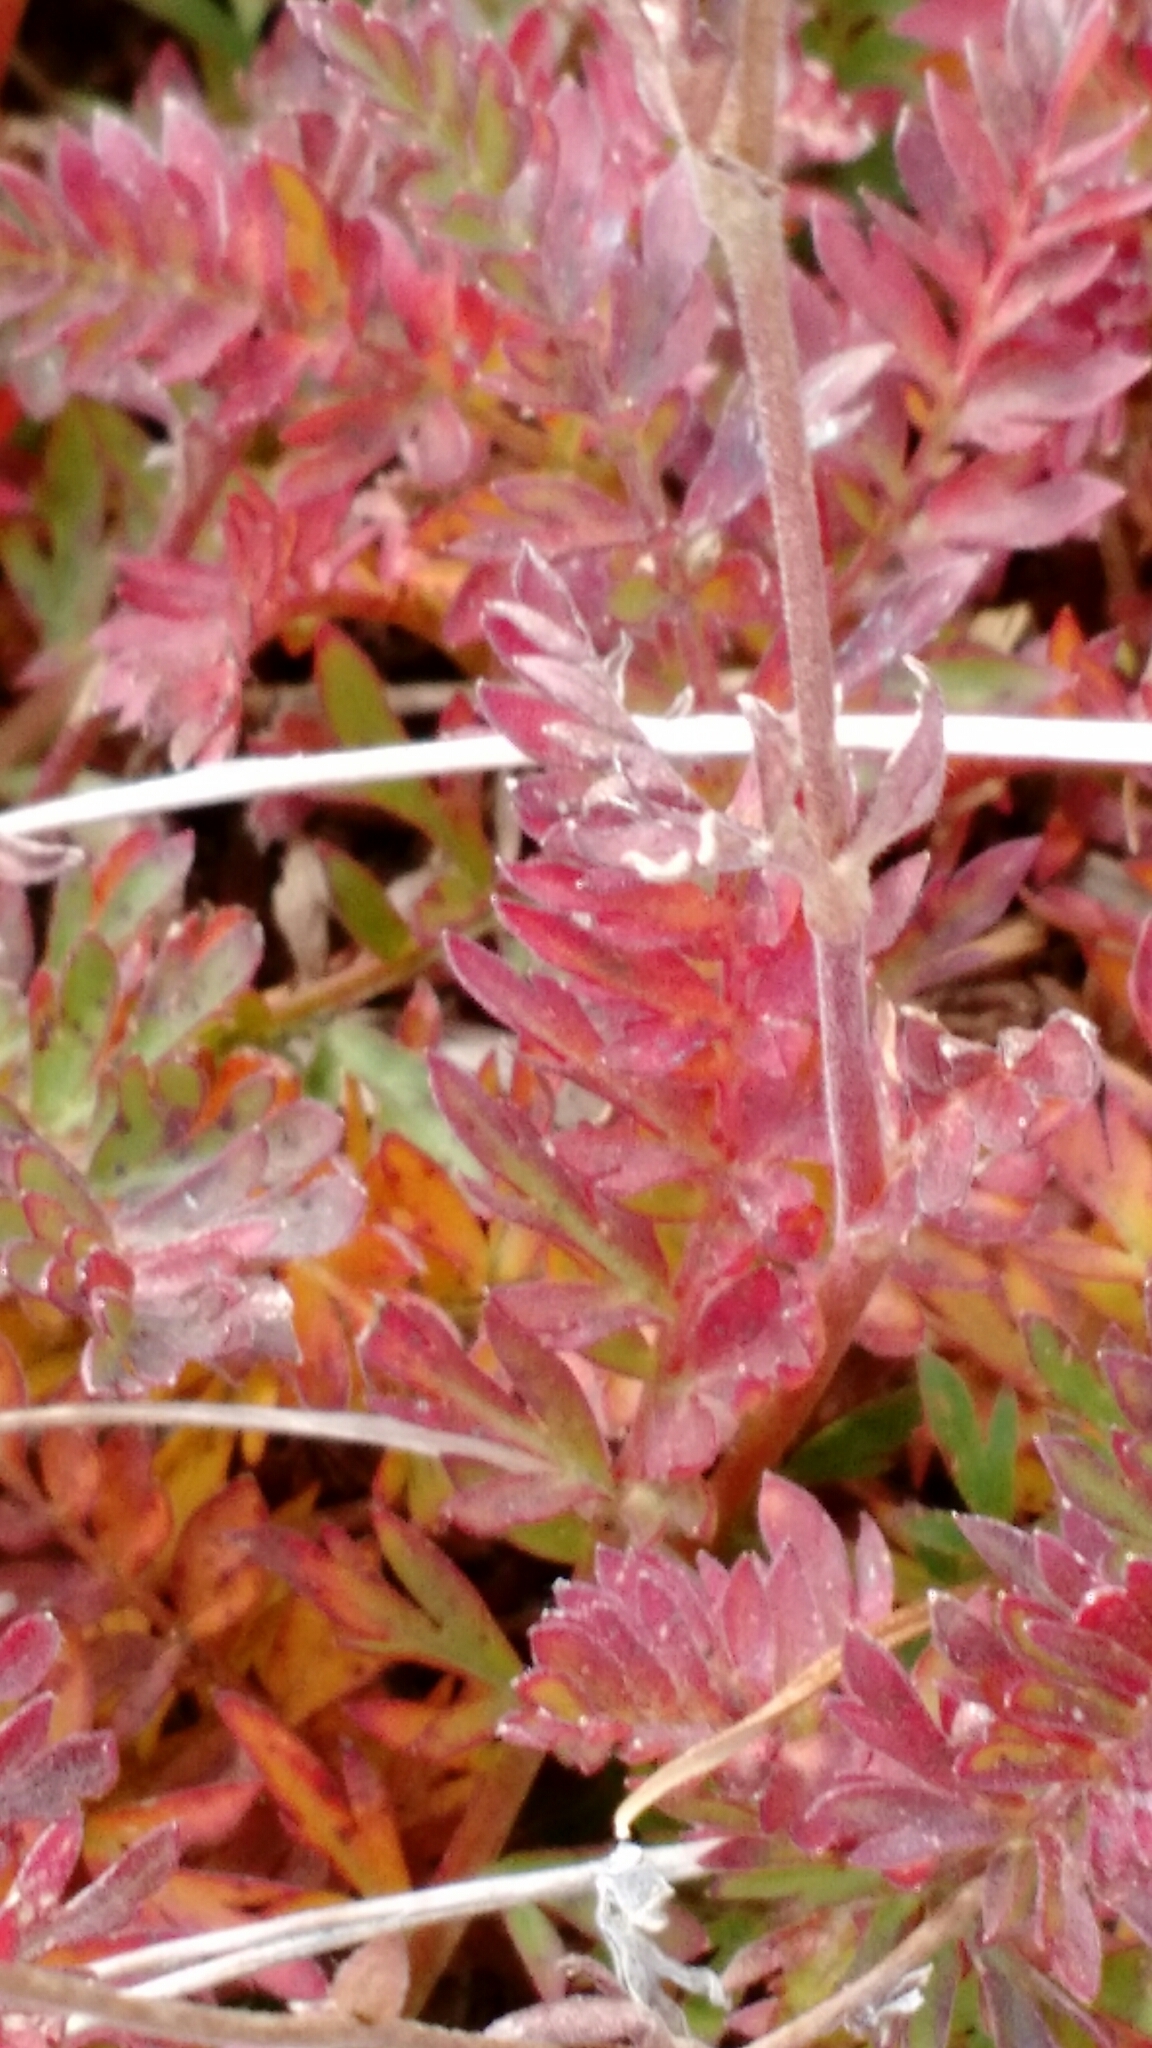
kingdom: Plantae
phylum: Tracheophyta
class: Magnoliopsida
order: Rosales
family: Rosaceae
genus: Geum
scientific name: Geum rossii
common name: Alpine avens
